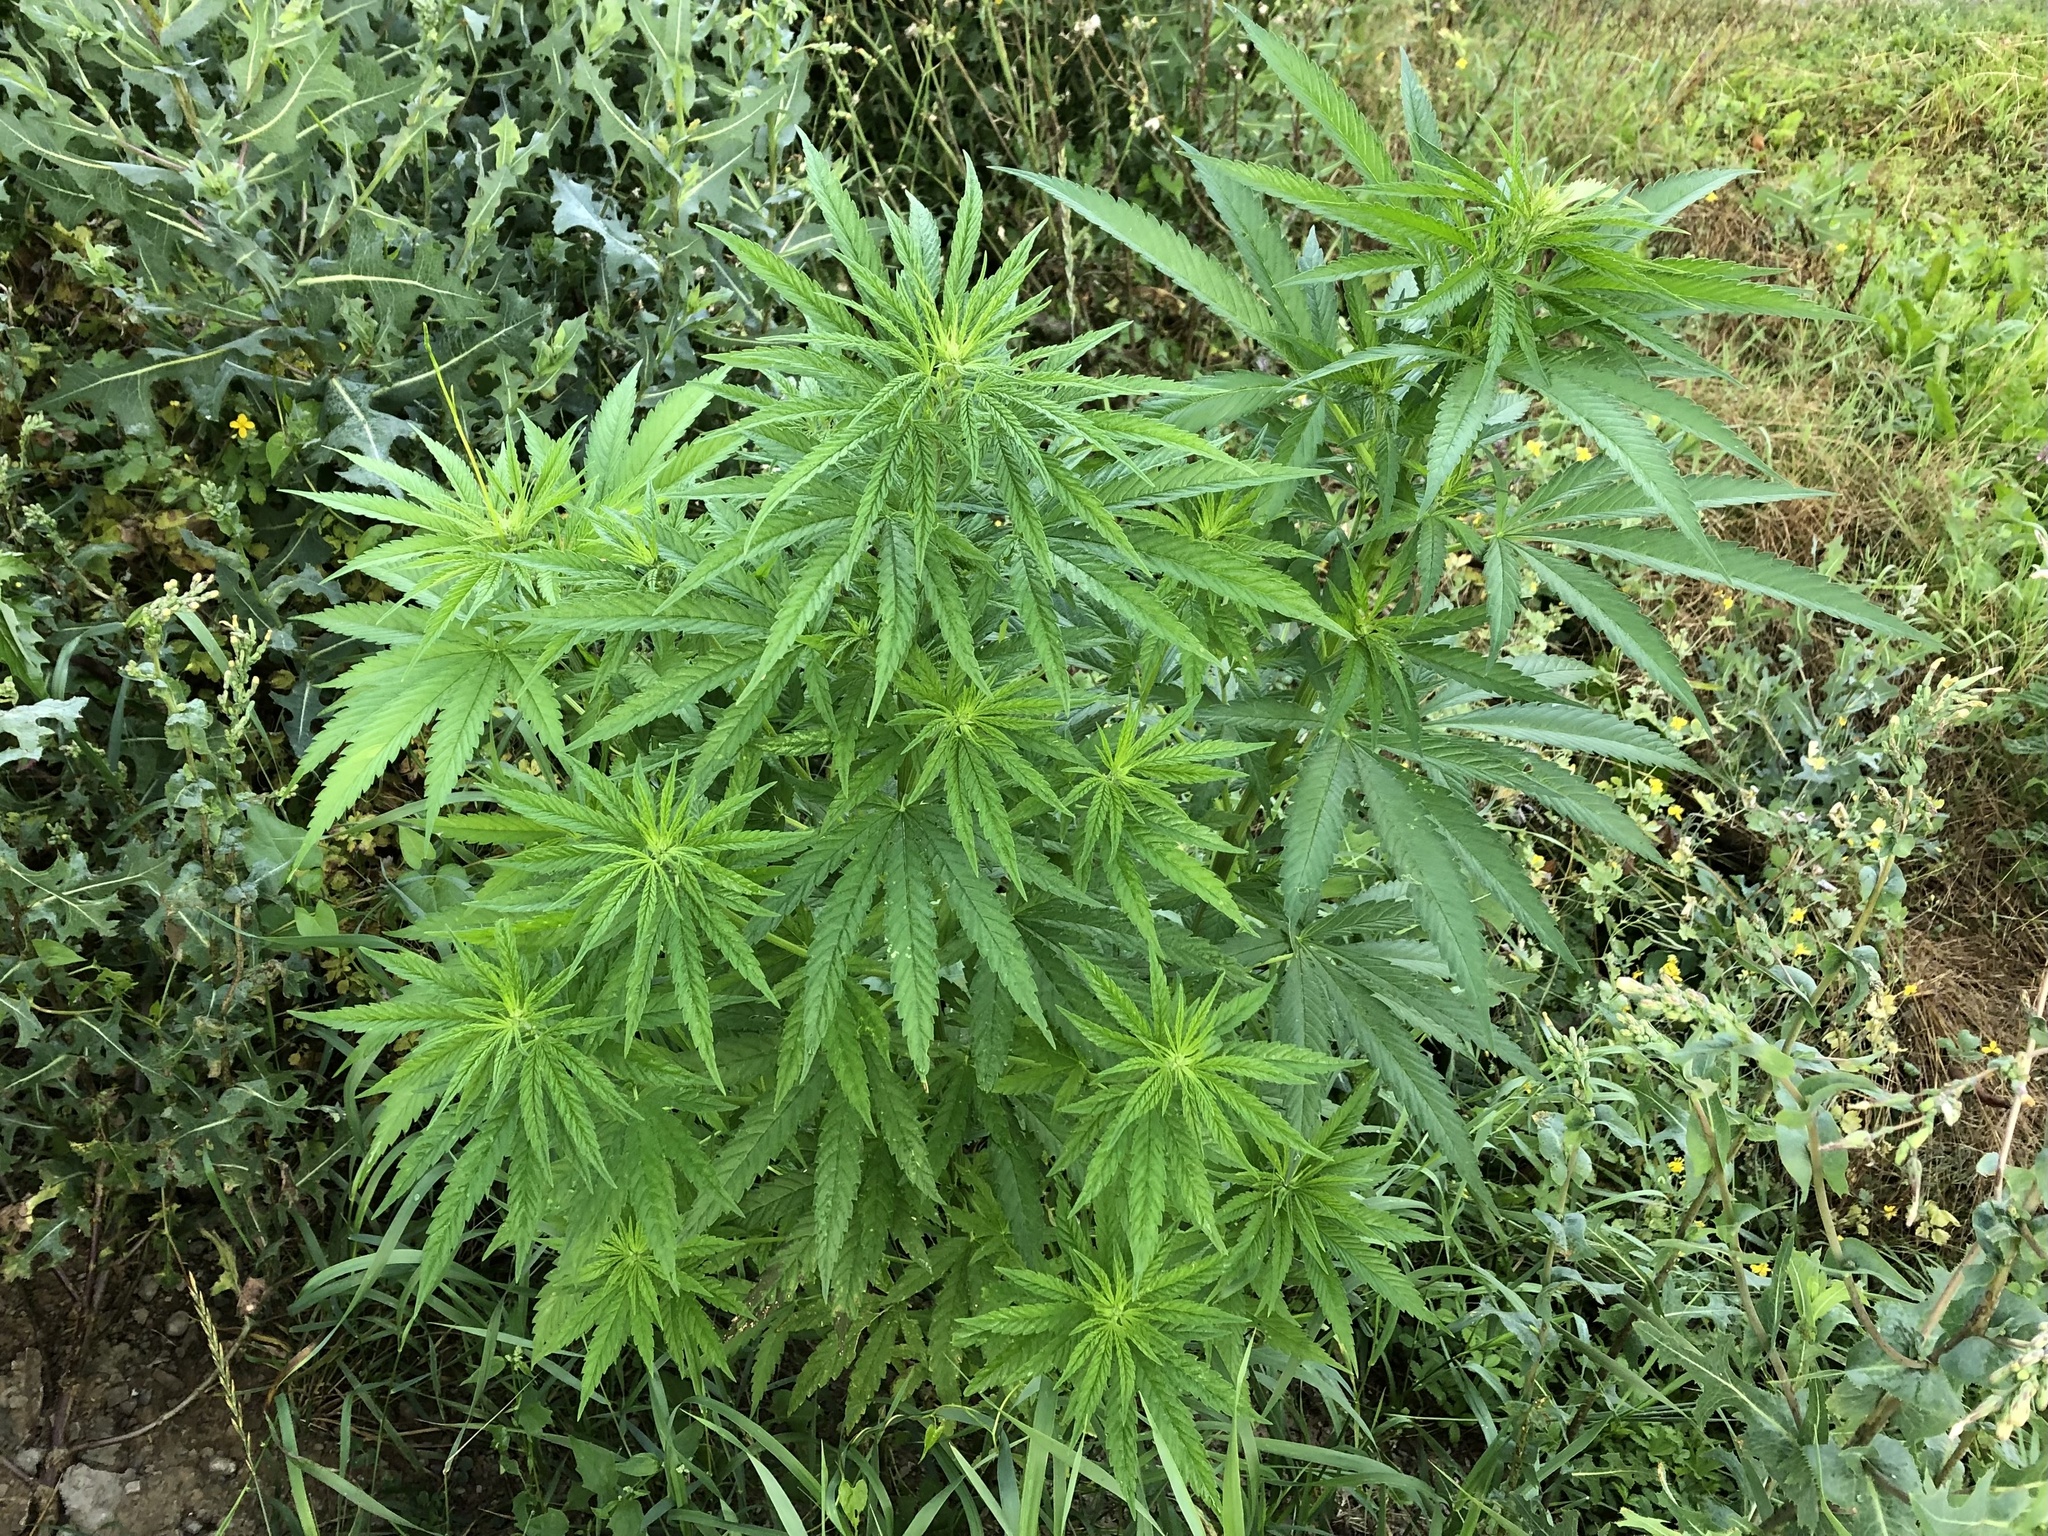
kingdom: Plantae
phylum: Tracheophyta
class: Magnoliopsida
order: Rosales
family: Cannabaceae
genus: Cannabis
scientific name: Cannabis sativa
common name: Hemp
